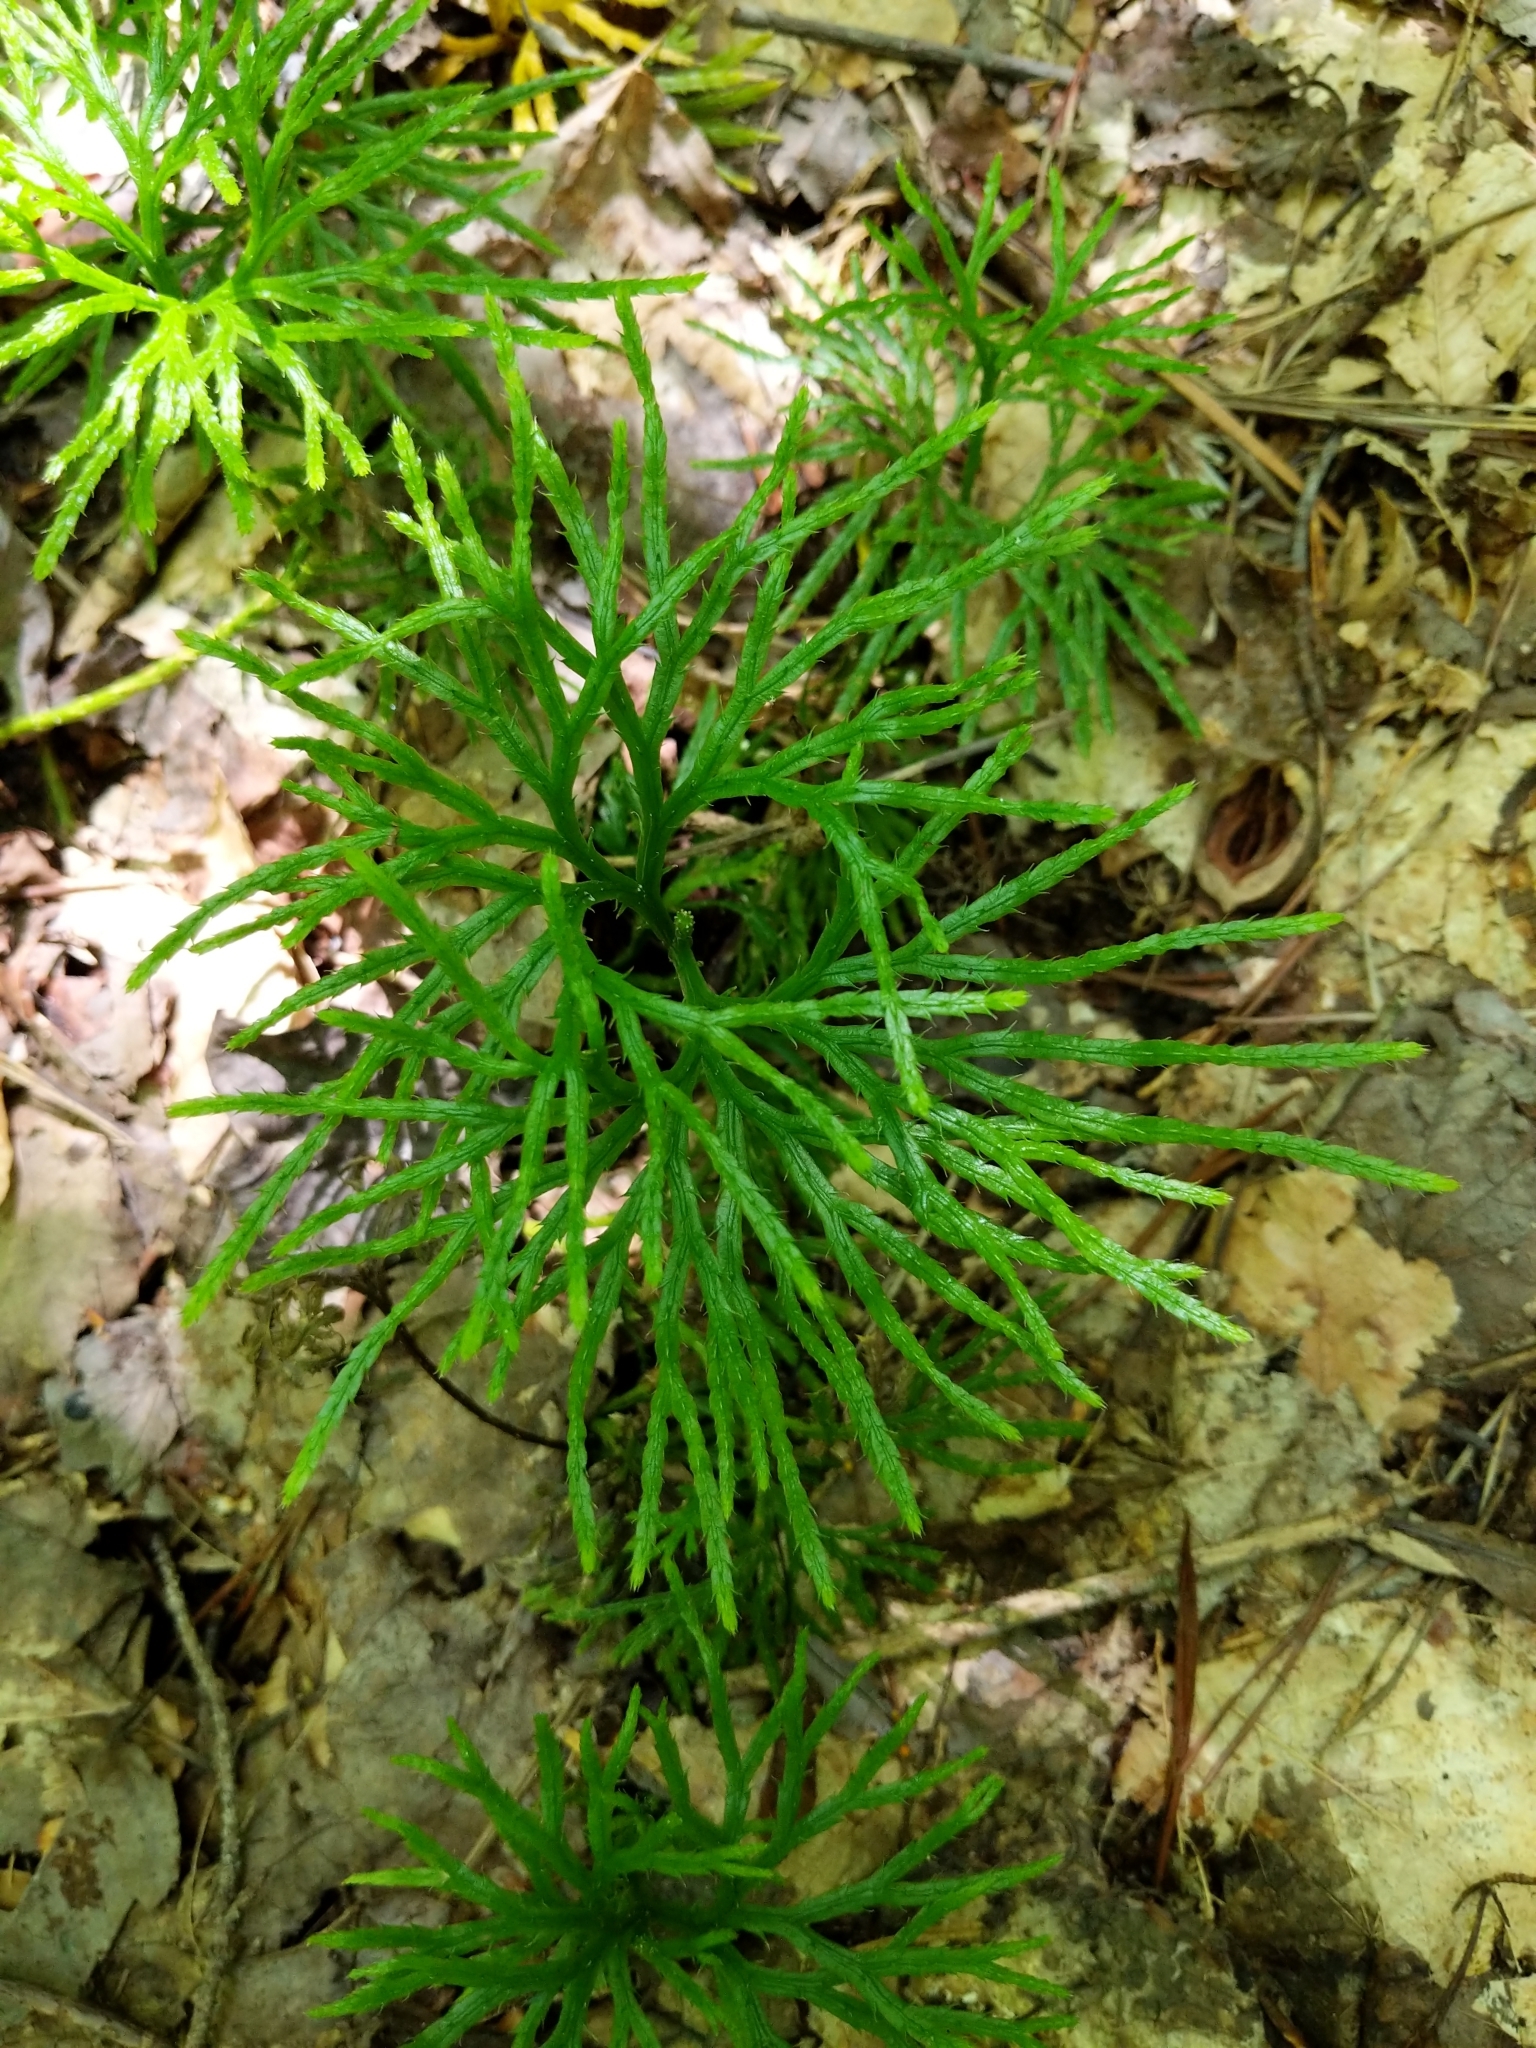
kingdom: Plantae
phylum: Tracheophyta
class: Lycopodiopsida
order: Lycopodiales
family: Lycopodiaceae
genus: Diphasiastrum
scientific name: Diphasiastrum digitatum
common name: Southern running-pine
